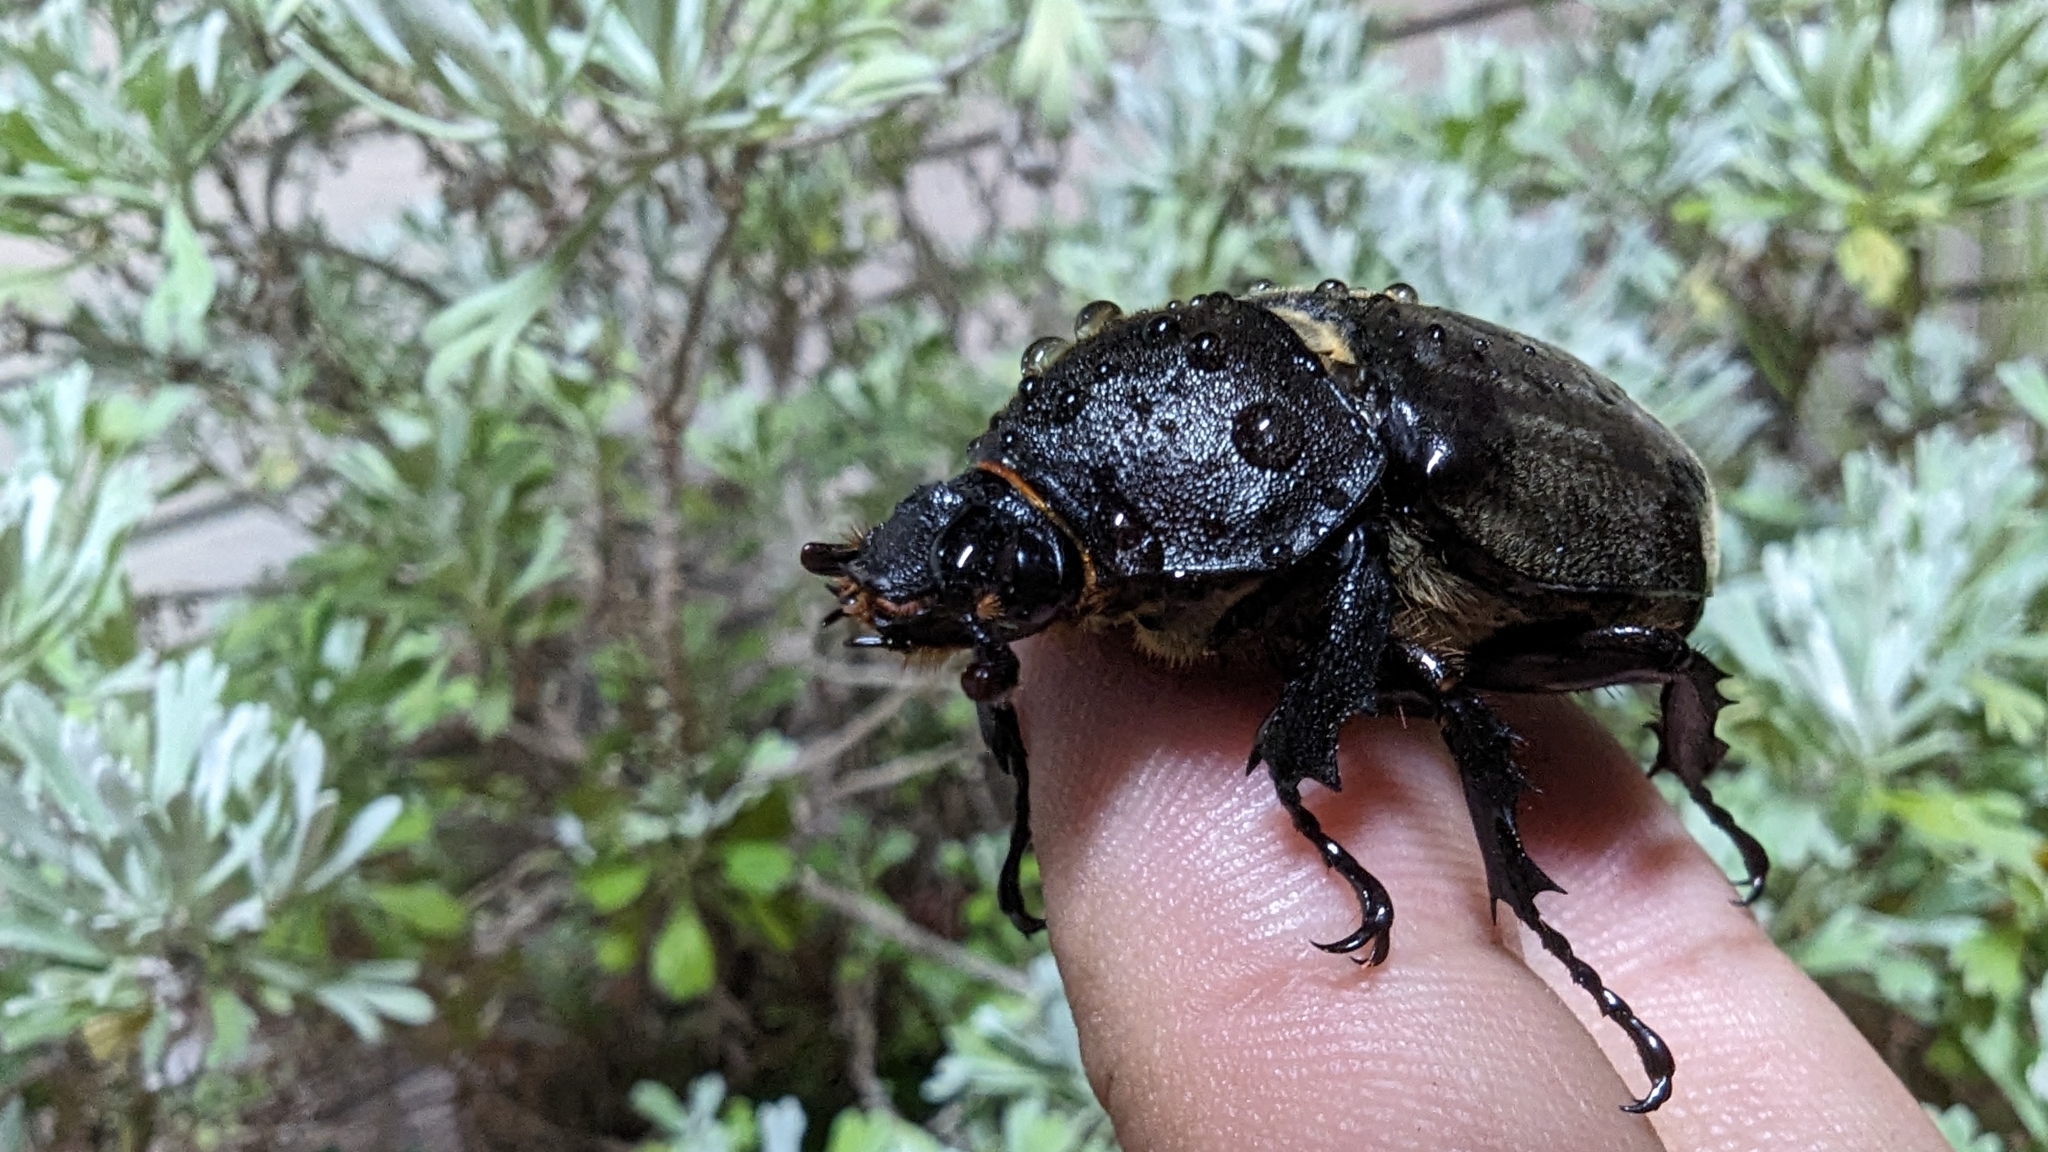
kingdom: Animalia
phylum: Arthropoda
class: Insecta
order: Coleoptera
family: Scarabaeidae
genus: Trypoxylus
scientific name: Trypoxylus dichotomus
